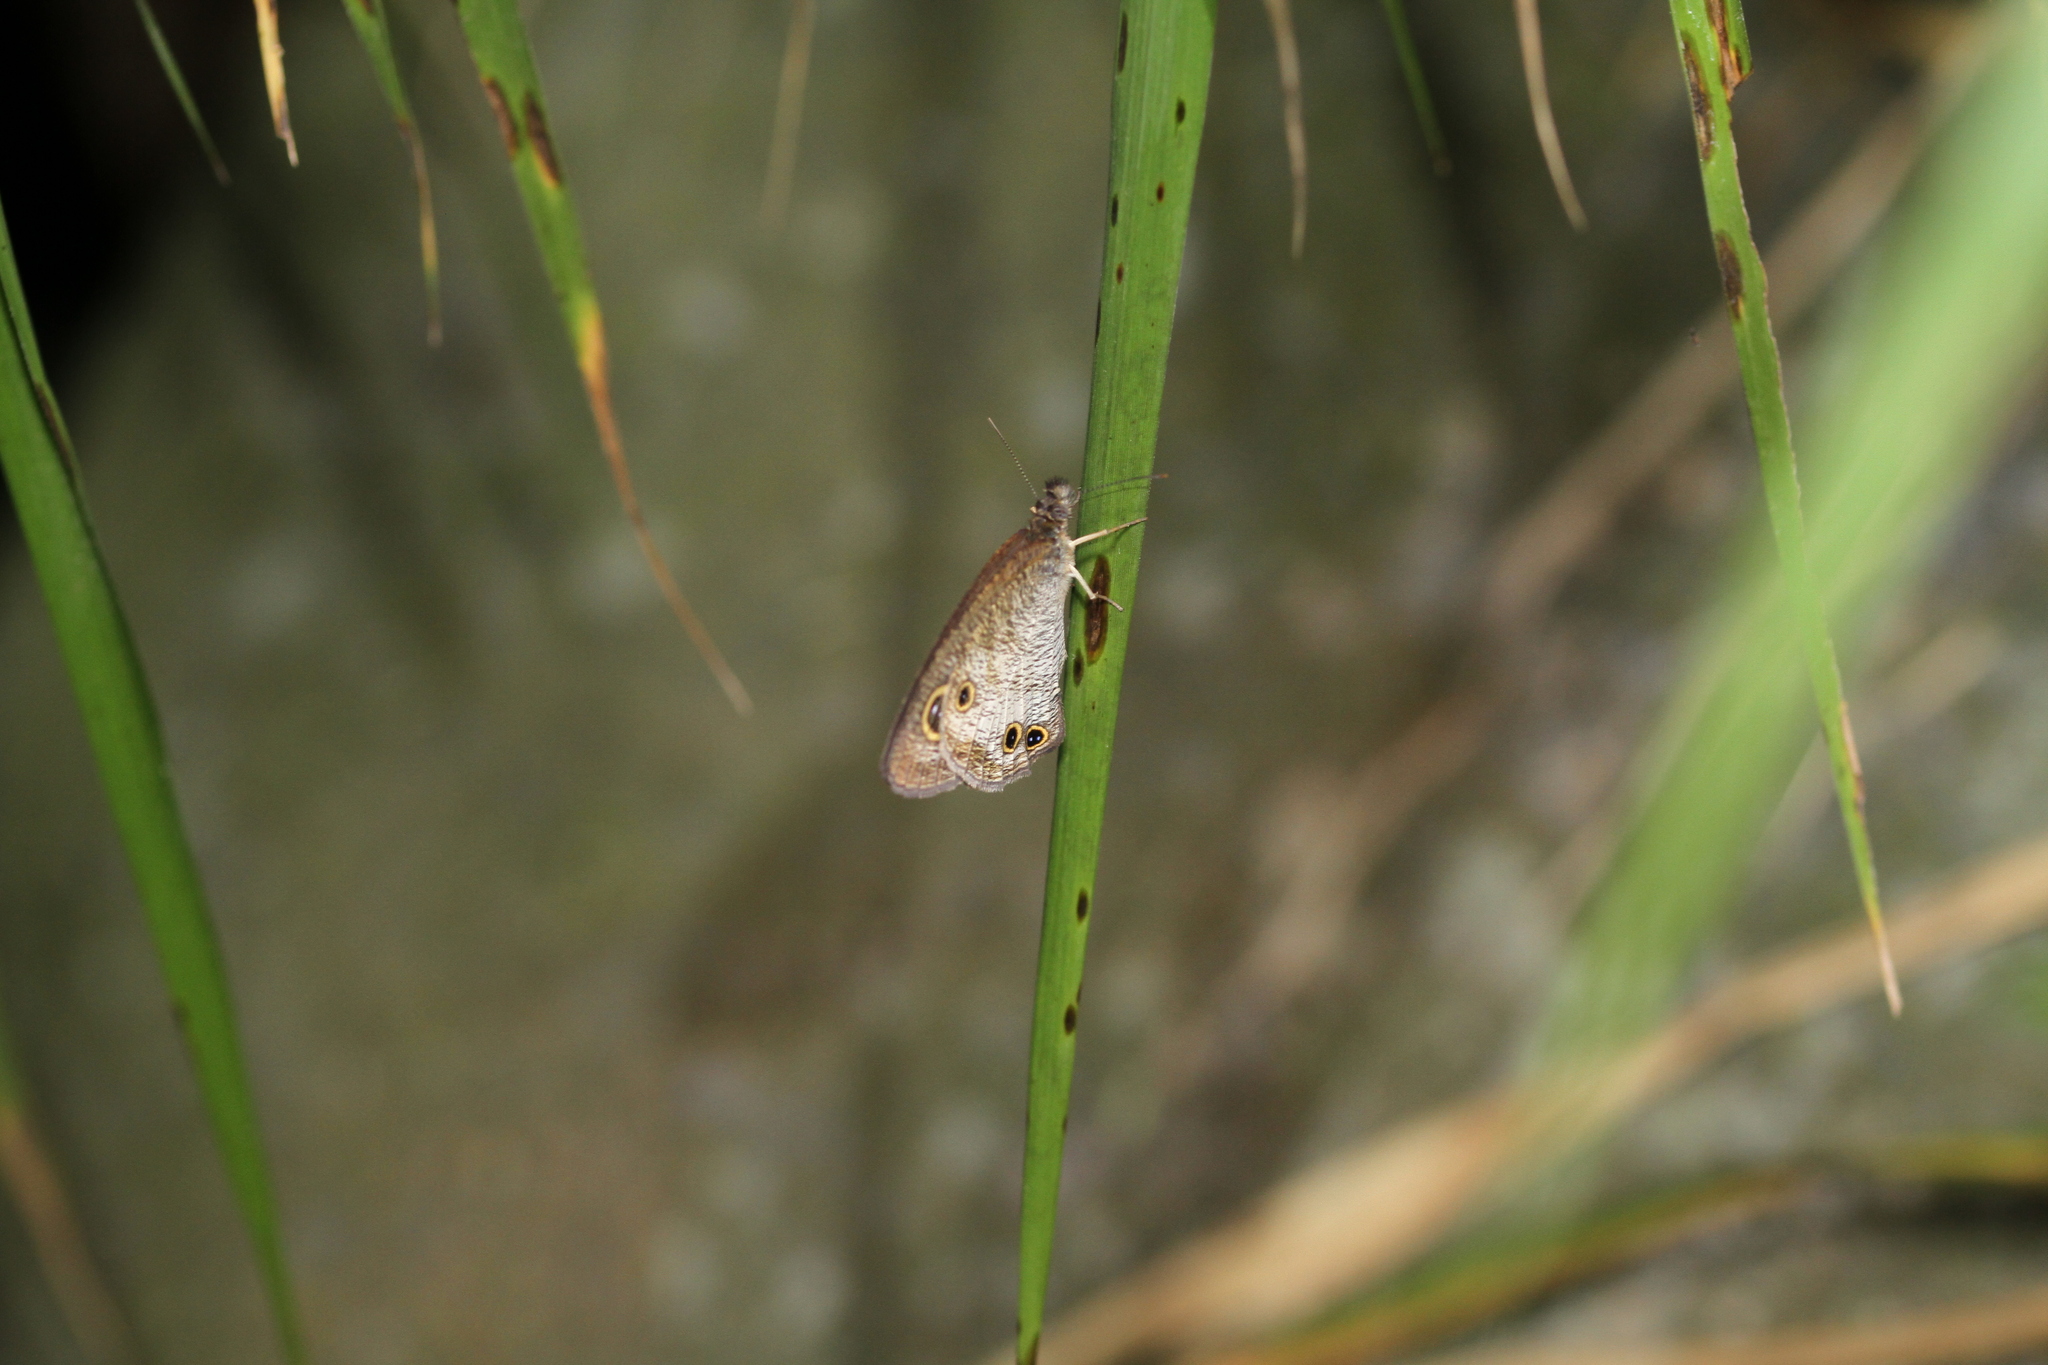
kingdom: Animalia
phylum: Arthropoda
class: Insecta
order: Lepidoptera
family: Nymphalidae
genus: Ypthima
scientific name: Ypthima pandocus
